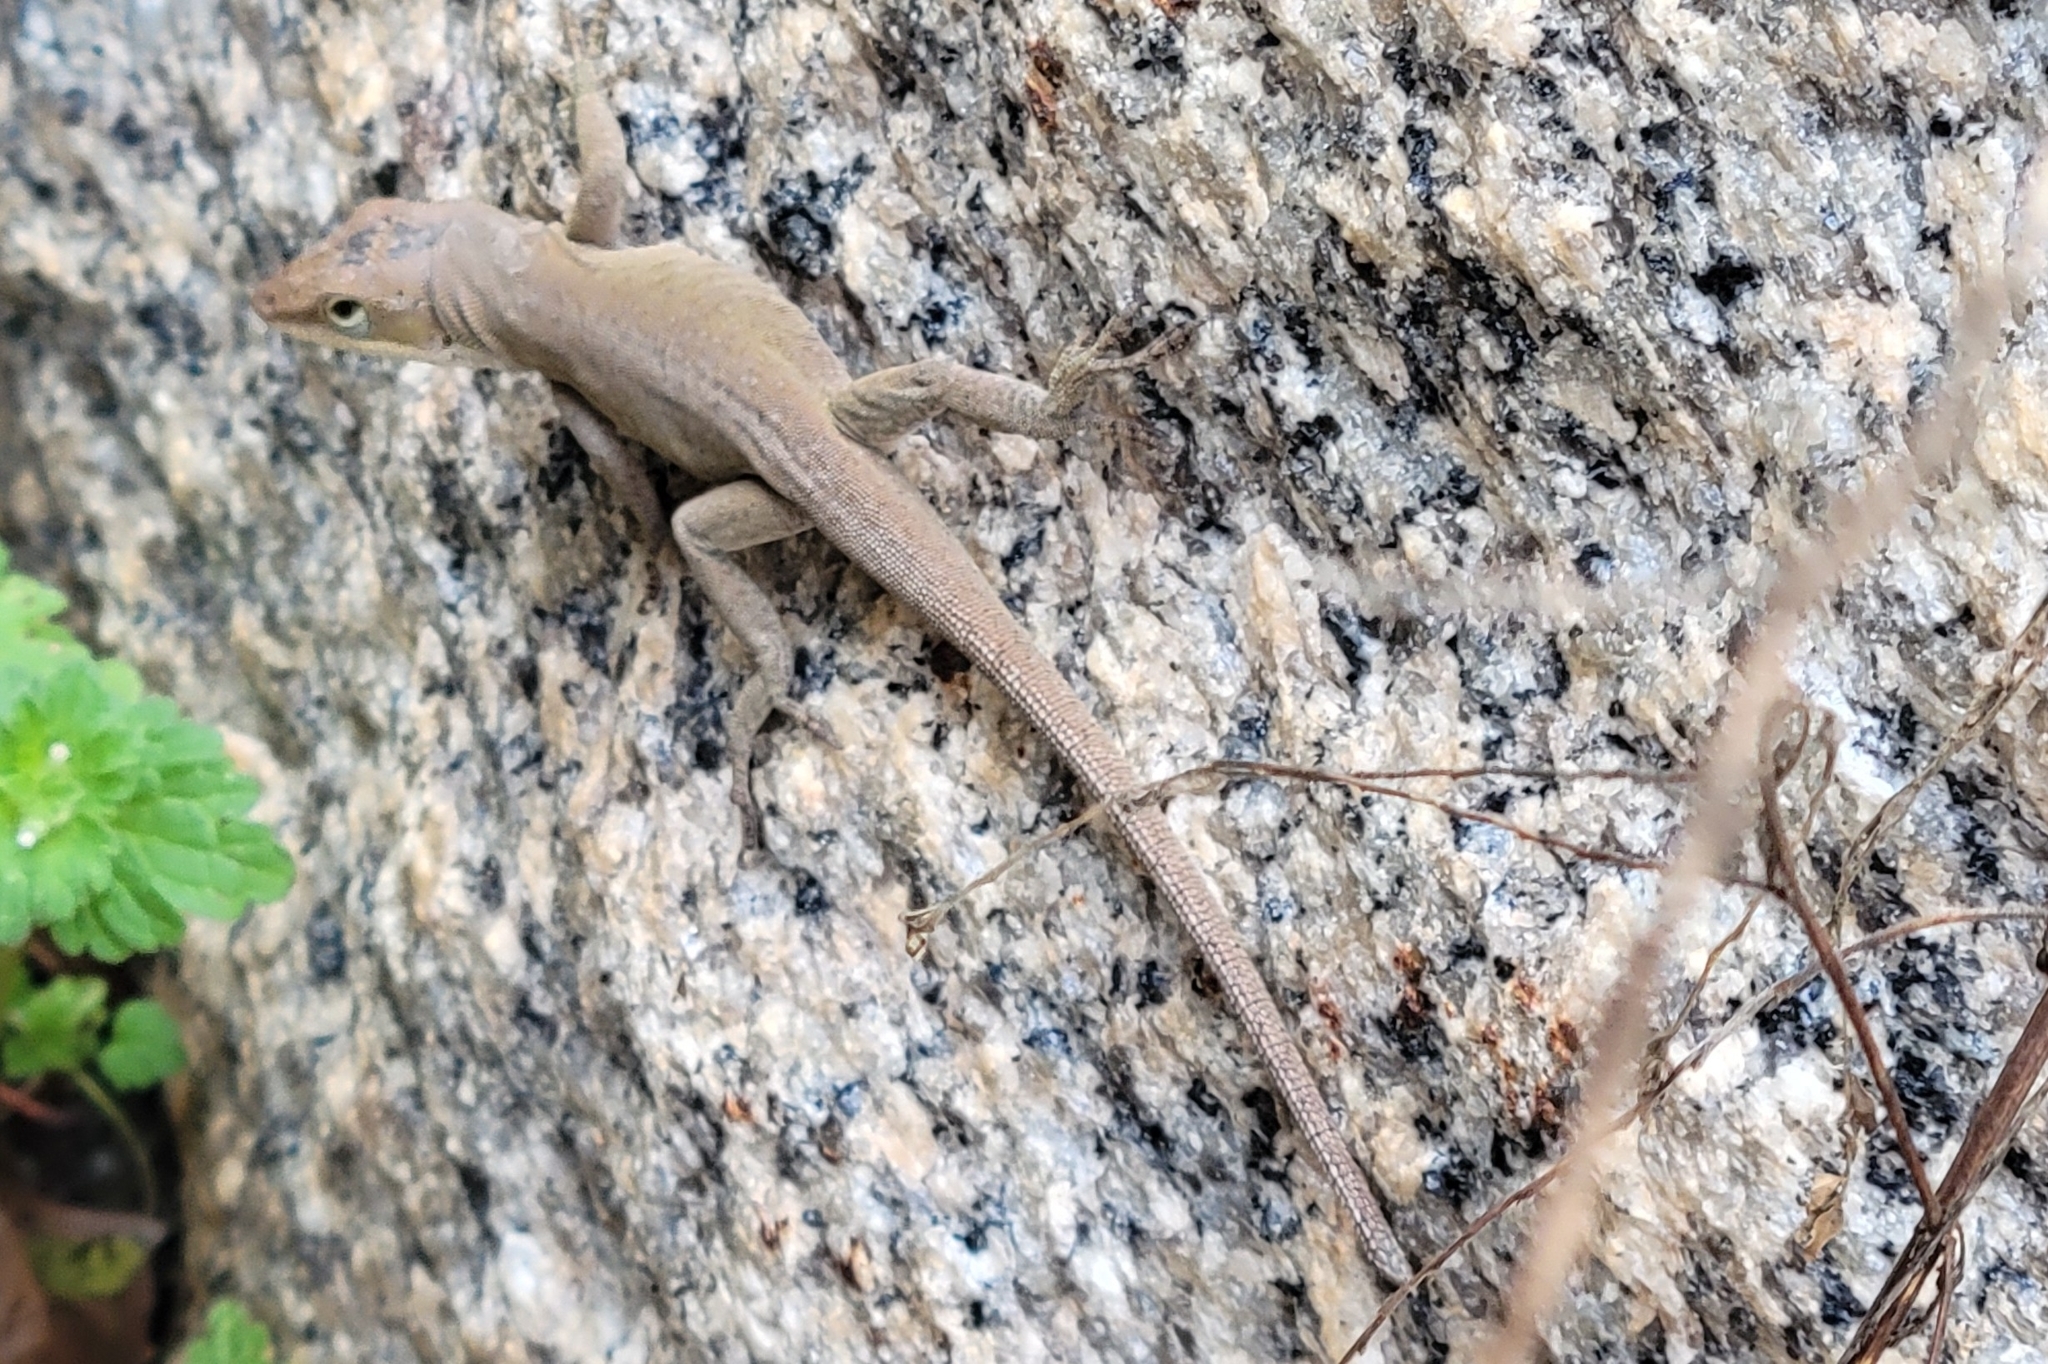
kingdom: Animalia
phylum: Chordata
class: Squamata
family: Dactyloidae
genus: Anolis
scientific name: Anolis carolinensis
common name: Green anole
